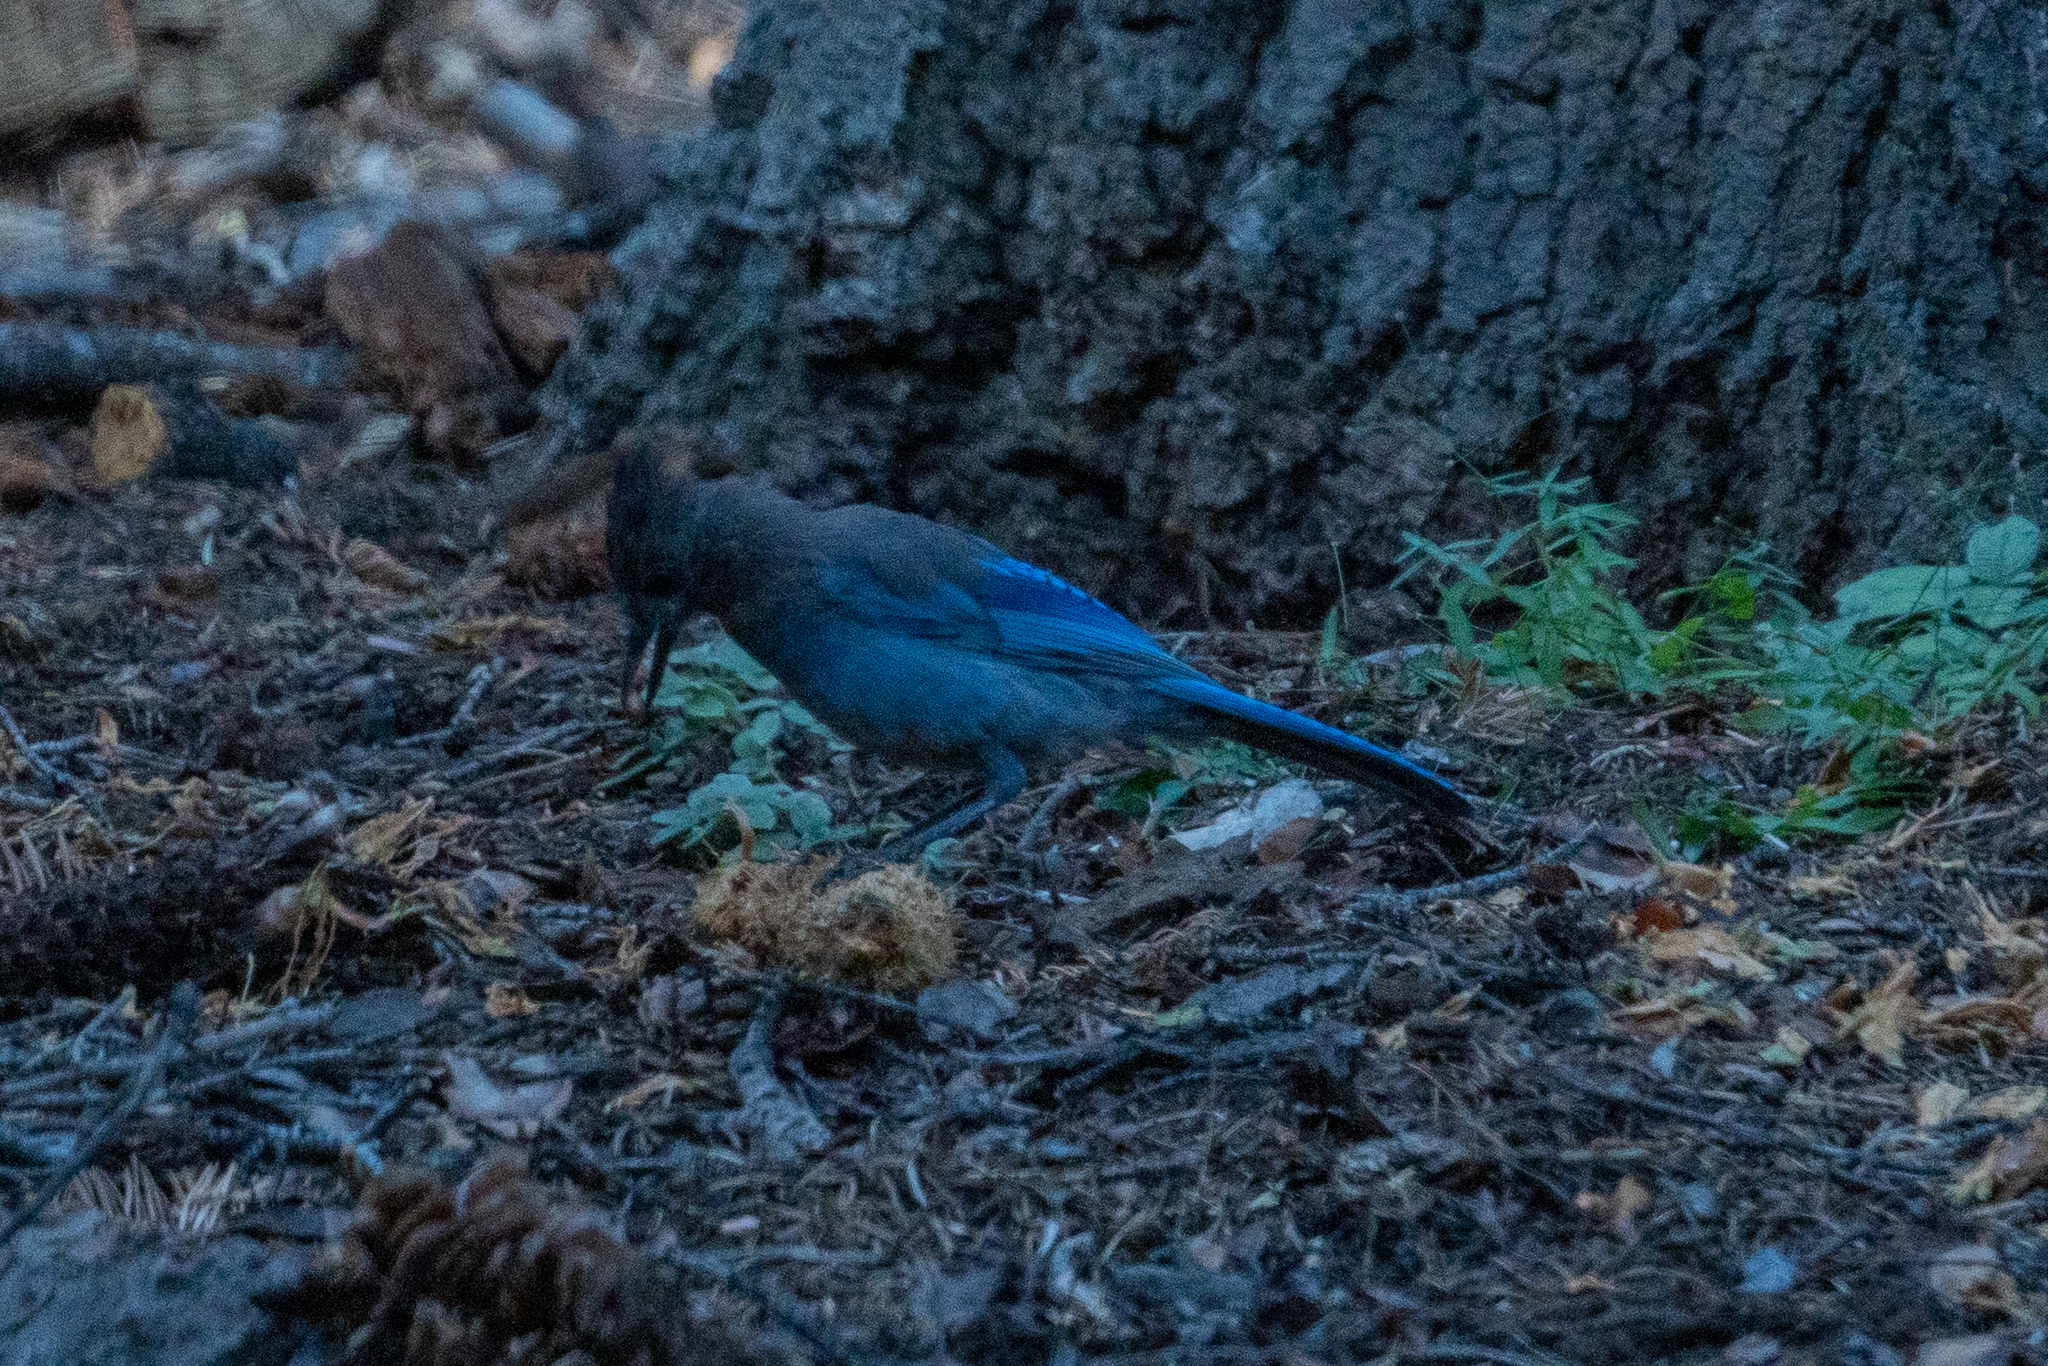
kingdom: Animalia
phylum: Chordata
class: Aves
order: Passeriformes
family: Corvidae
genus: Cyanocitta
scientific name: Cyanocitta stelleri
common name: Steller's jay
